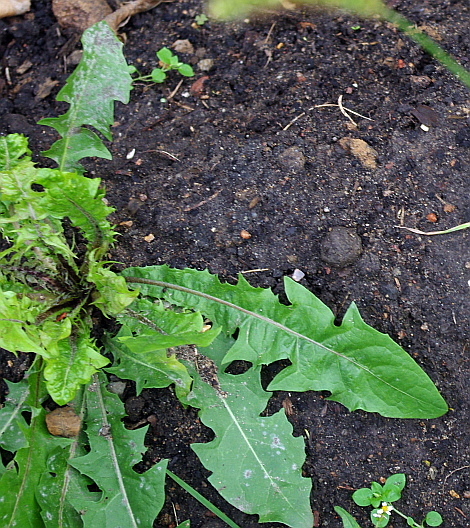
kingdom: Plantae
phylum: Tracheophyta
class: Magnoliopsida
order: Asterales
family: Asteraceae
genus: Taraxacum
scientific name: Taraxacum officinale
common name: Common dandelion
